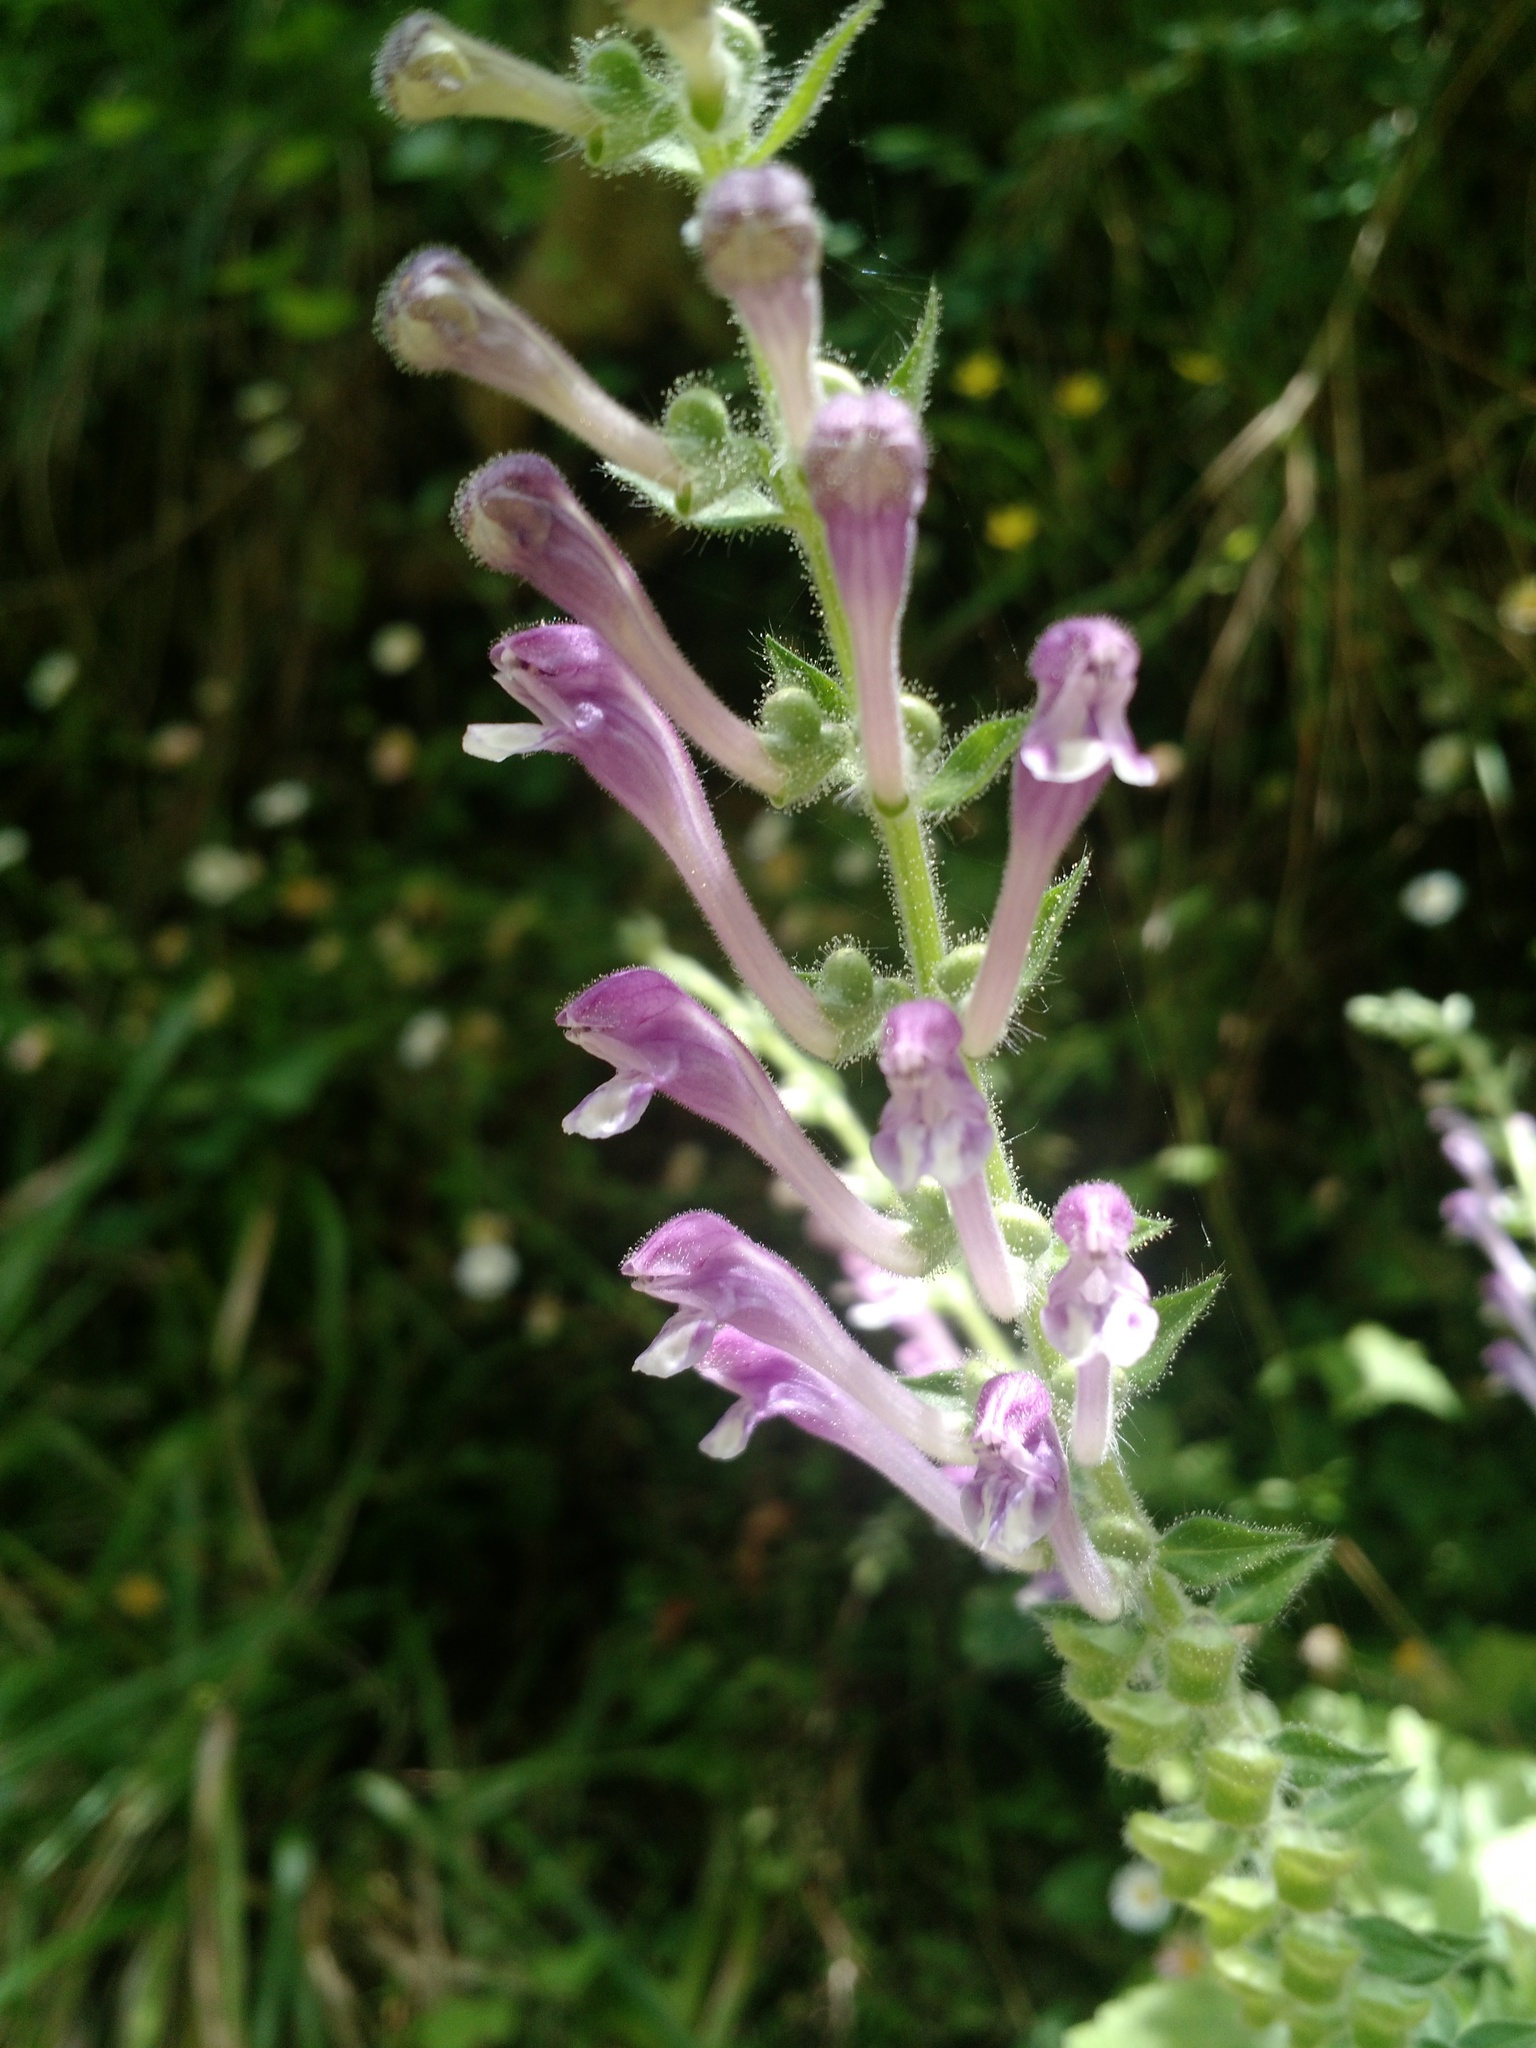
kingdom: Plantae
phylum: Tracheophyta
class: Magnoliopsida
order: Lamiales
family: Lamiaceae
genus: Scutellaria
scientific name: Scutellaria columnae
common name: Large skullcap
